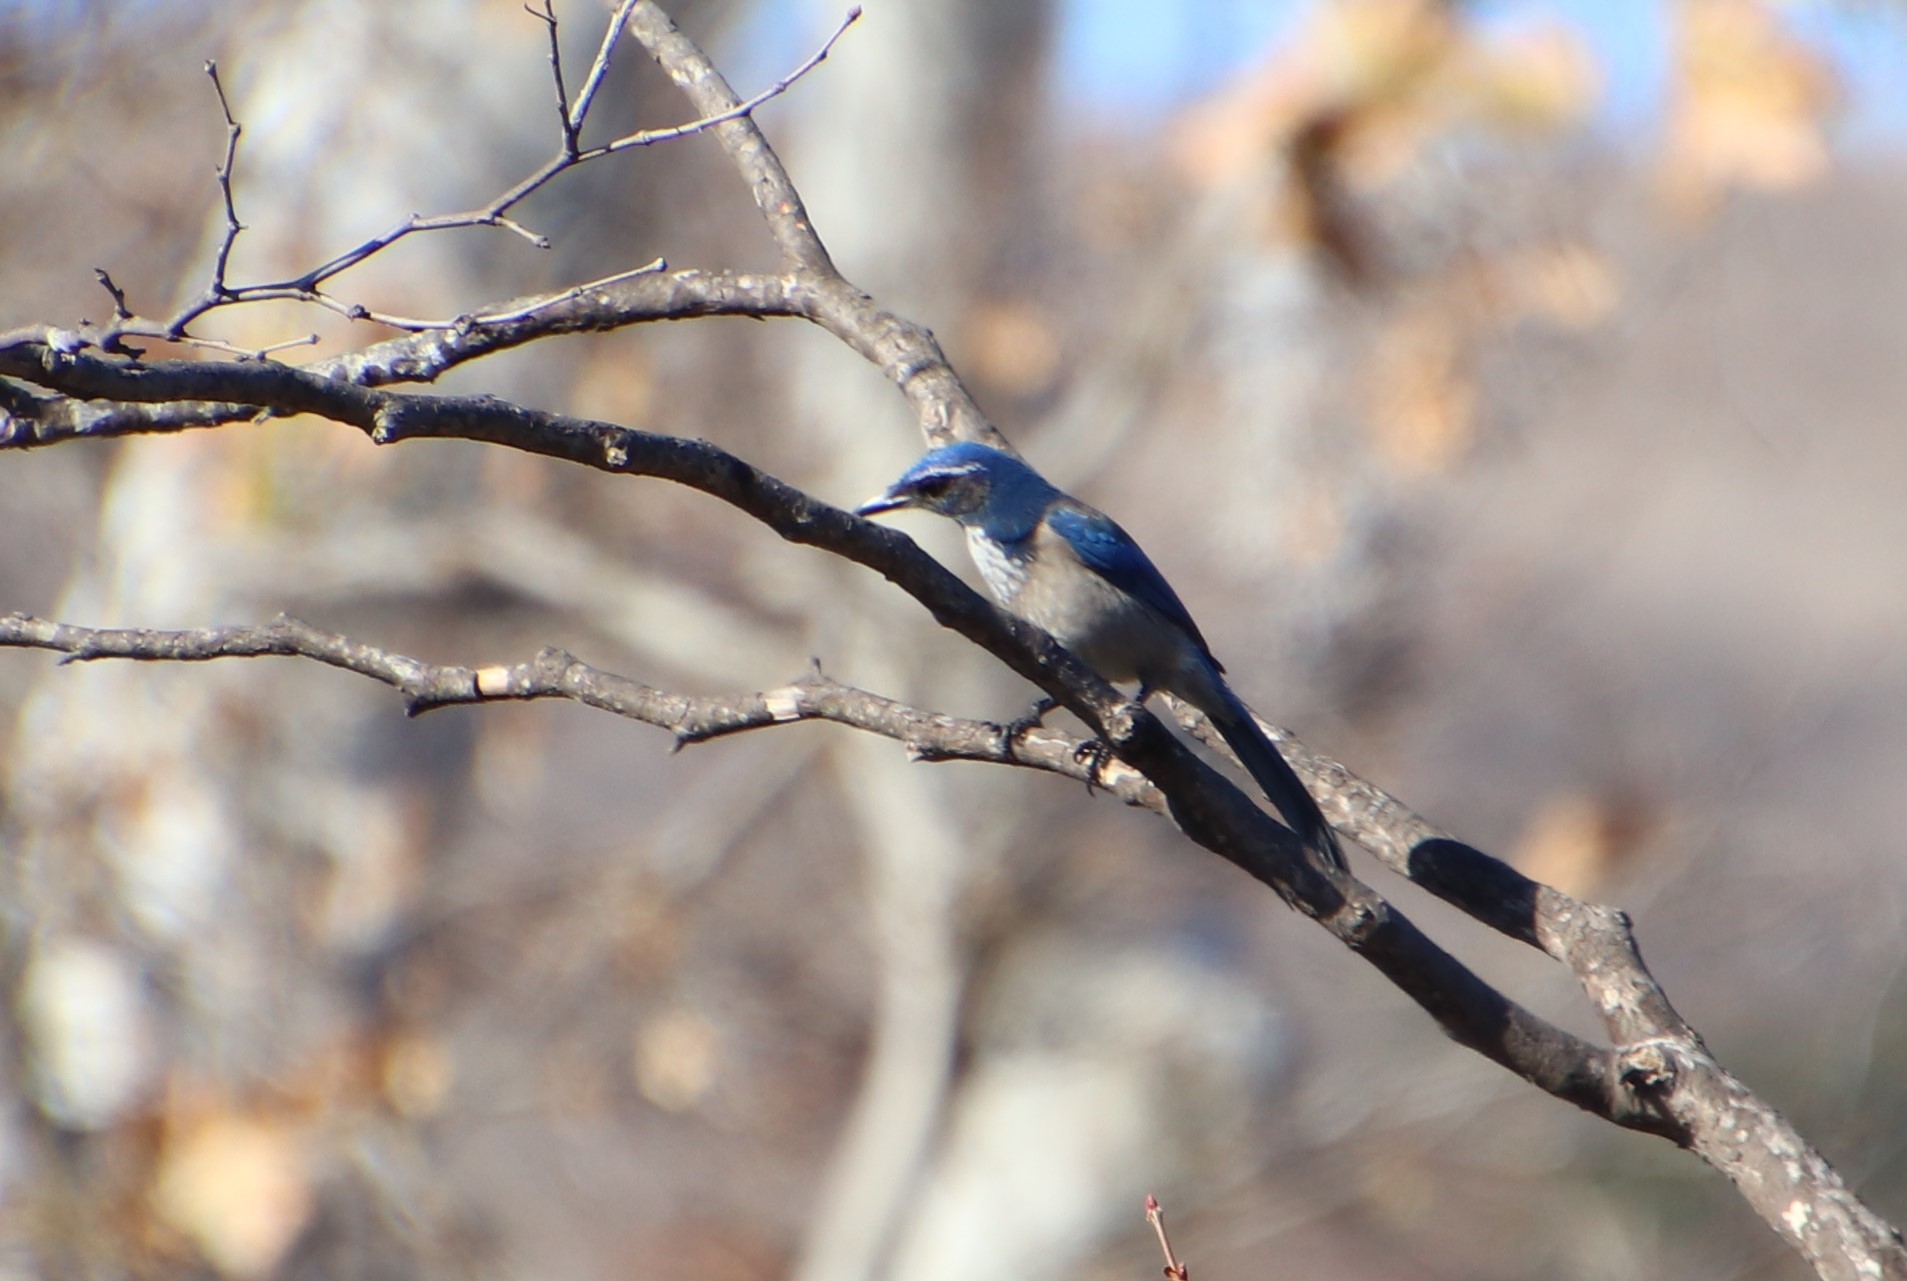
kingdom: Animalia
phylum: Chordata
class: Aves
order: Passeriformes
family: Corvidae
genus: Aphelocoma
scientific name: Aphelocoma californica
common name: California scrub-jay
